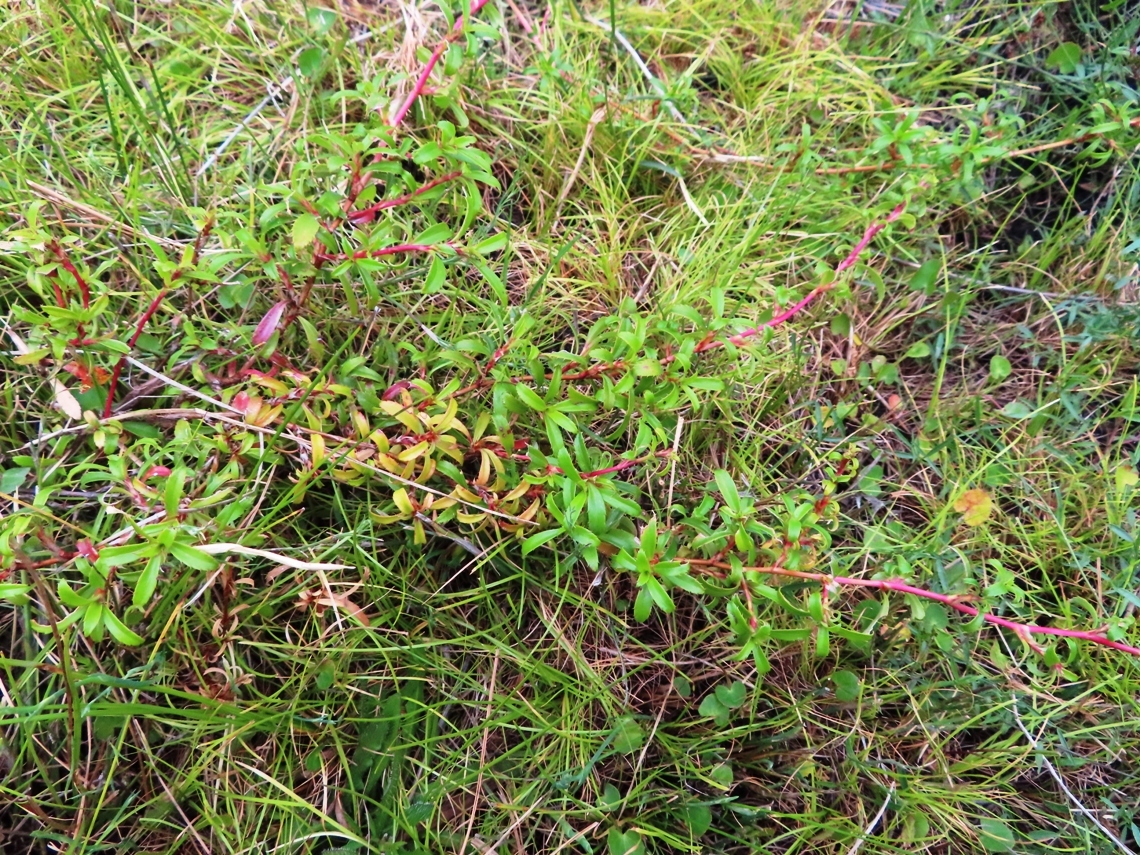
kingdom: Plantae
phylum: Tracheophyta
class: Magnoliopsida
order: Rosales
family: Rosaceae
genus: Cliffortia
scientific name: Cliffortia ferruginea
